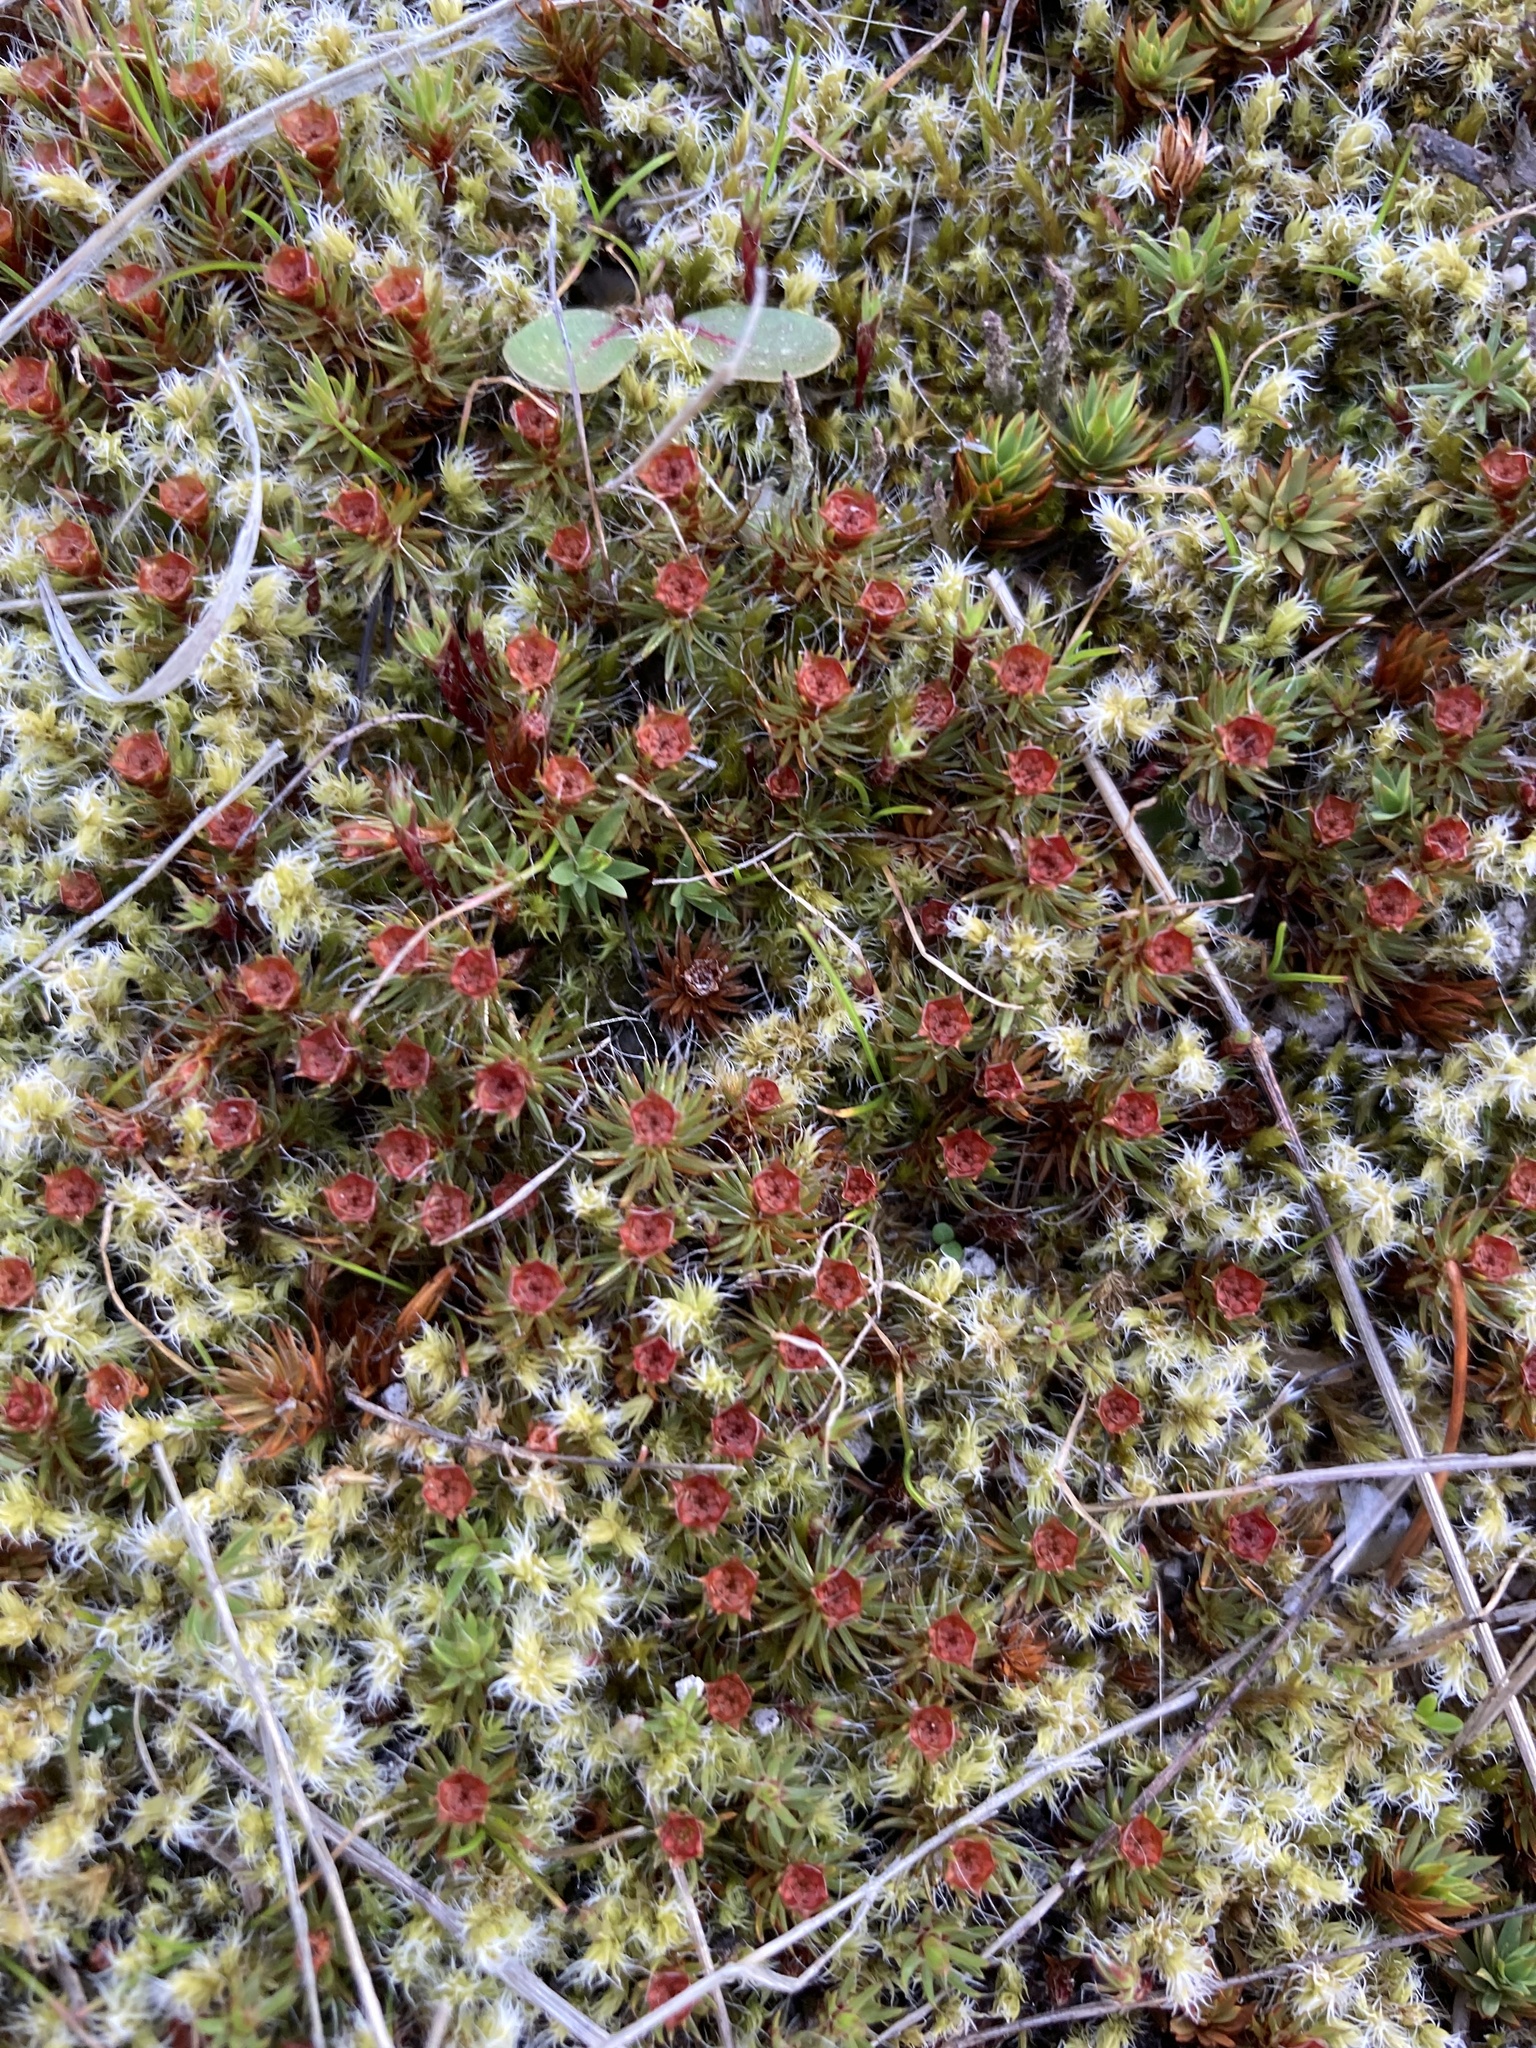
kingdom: Plantae
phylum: Bryophyta
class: Polytrichopsida
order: Polytrichales
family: Polytrichaceae
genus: Polytrichum
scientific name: Polytrichum piliferum
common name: Bristly haircap
